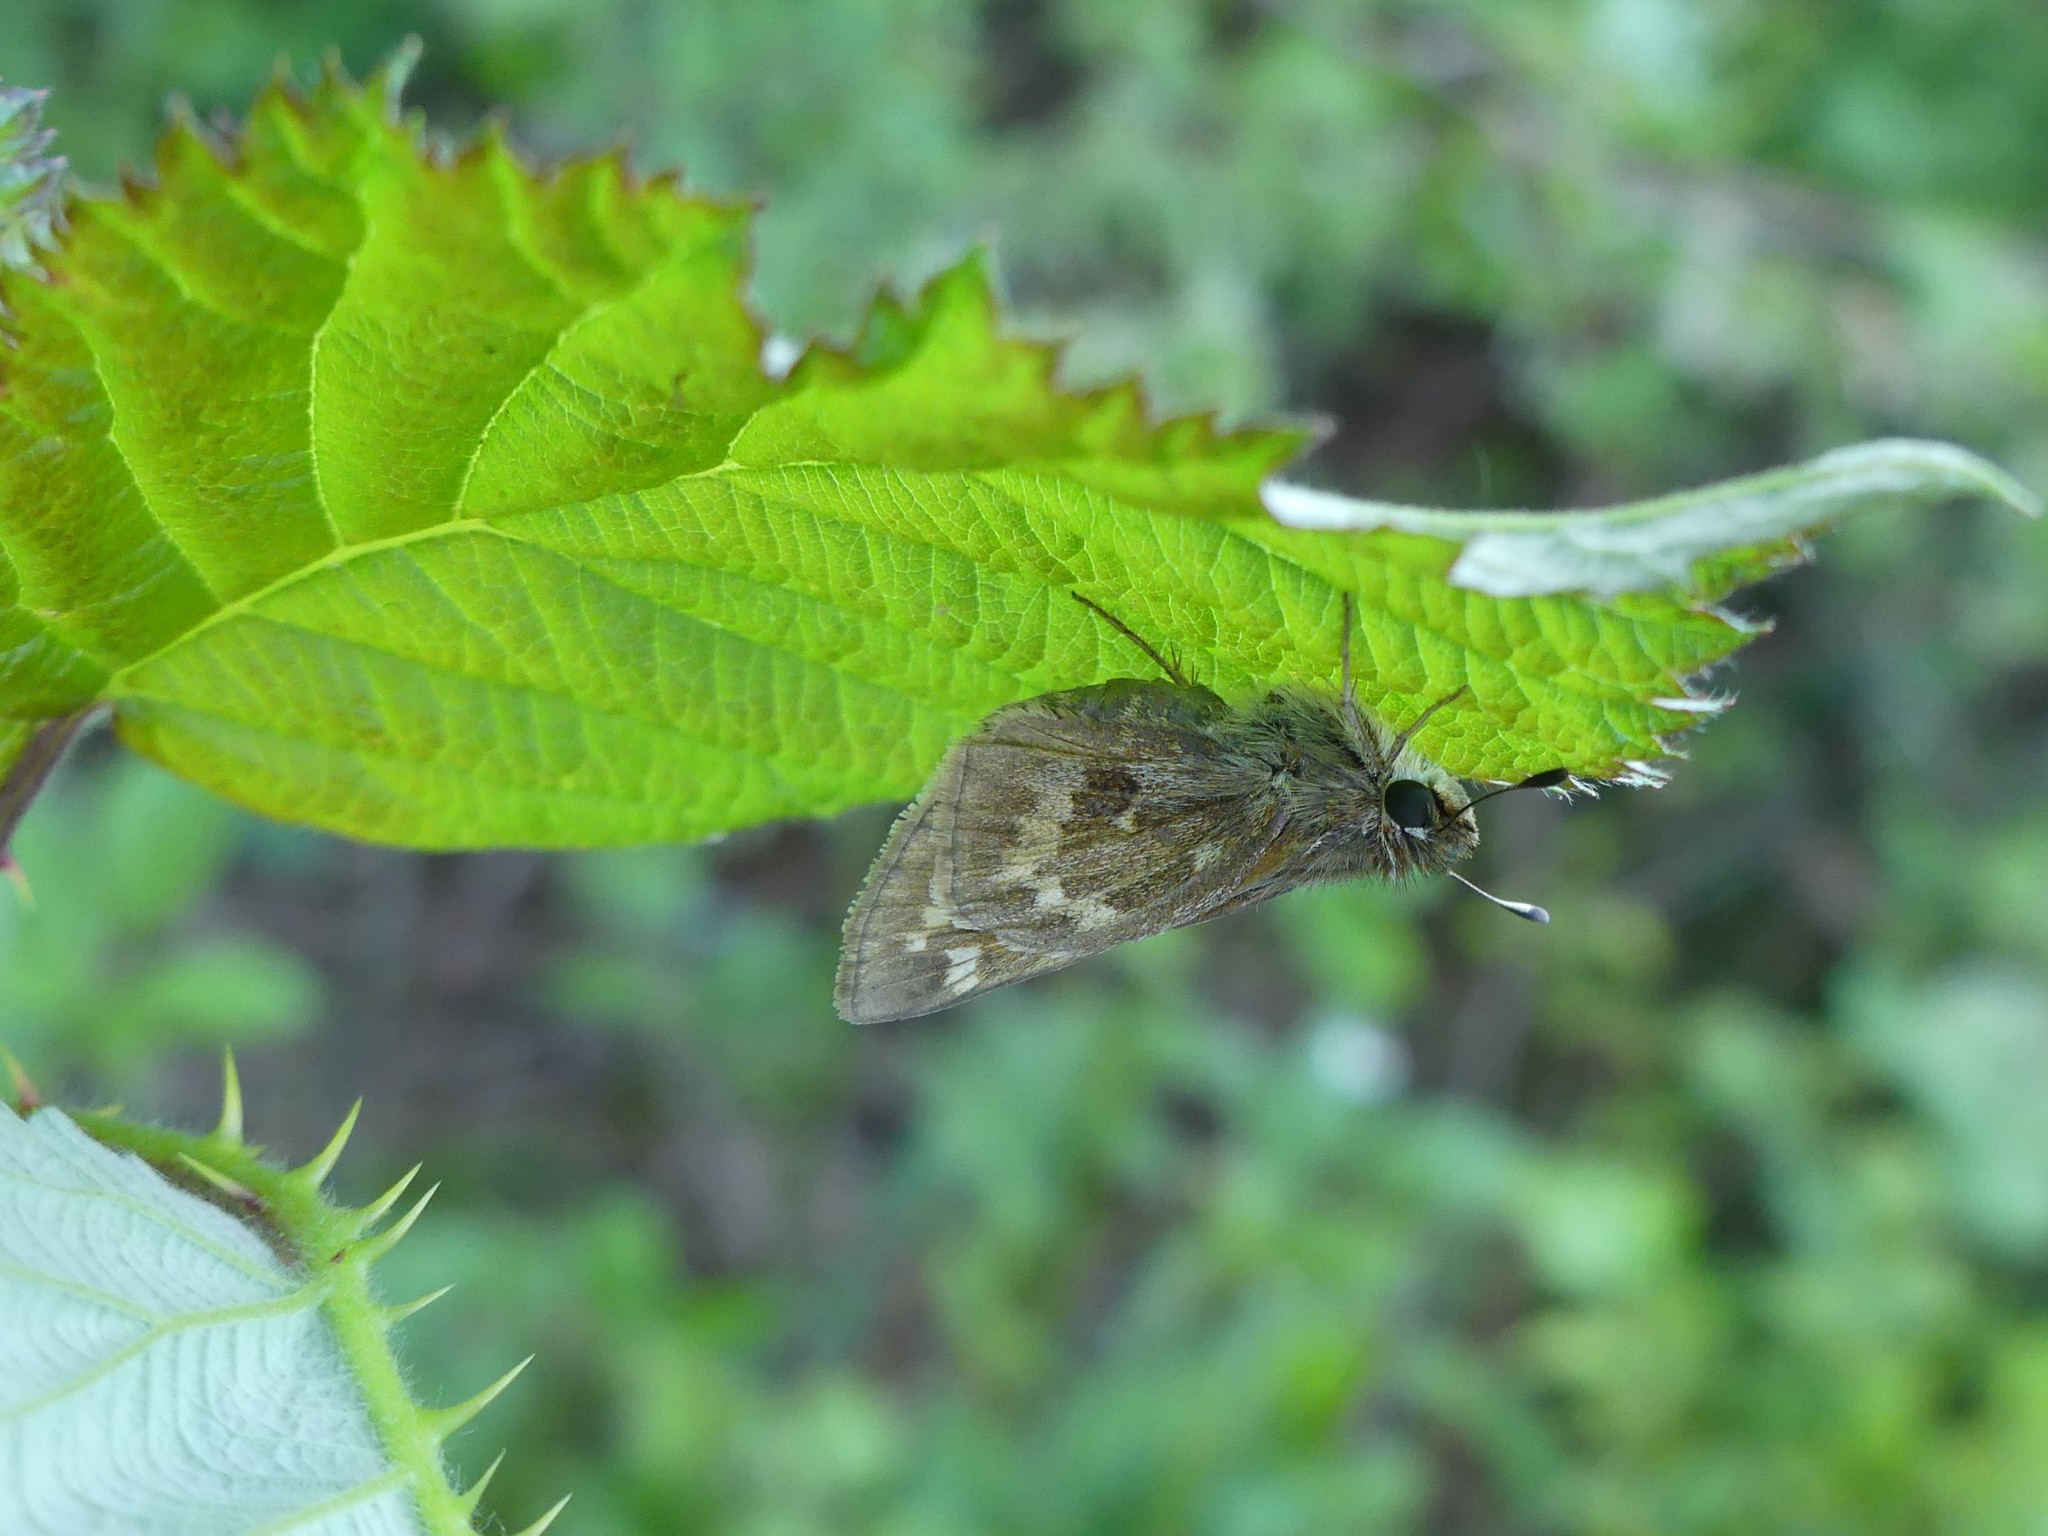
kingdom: Animalia
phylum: Arthropoda
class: Insecta
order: Lepidoptera
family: Hesperiidae
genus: Atalopedes
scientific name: Atalopedes
